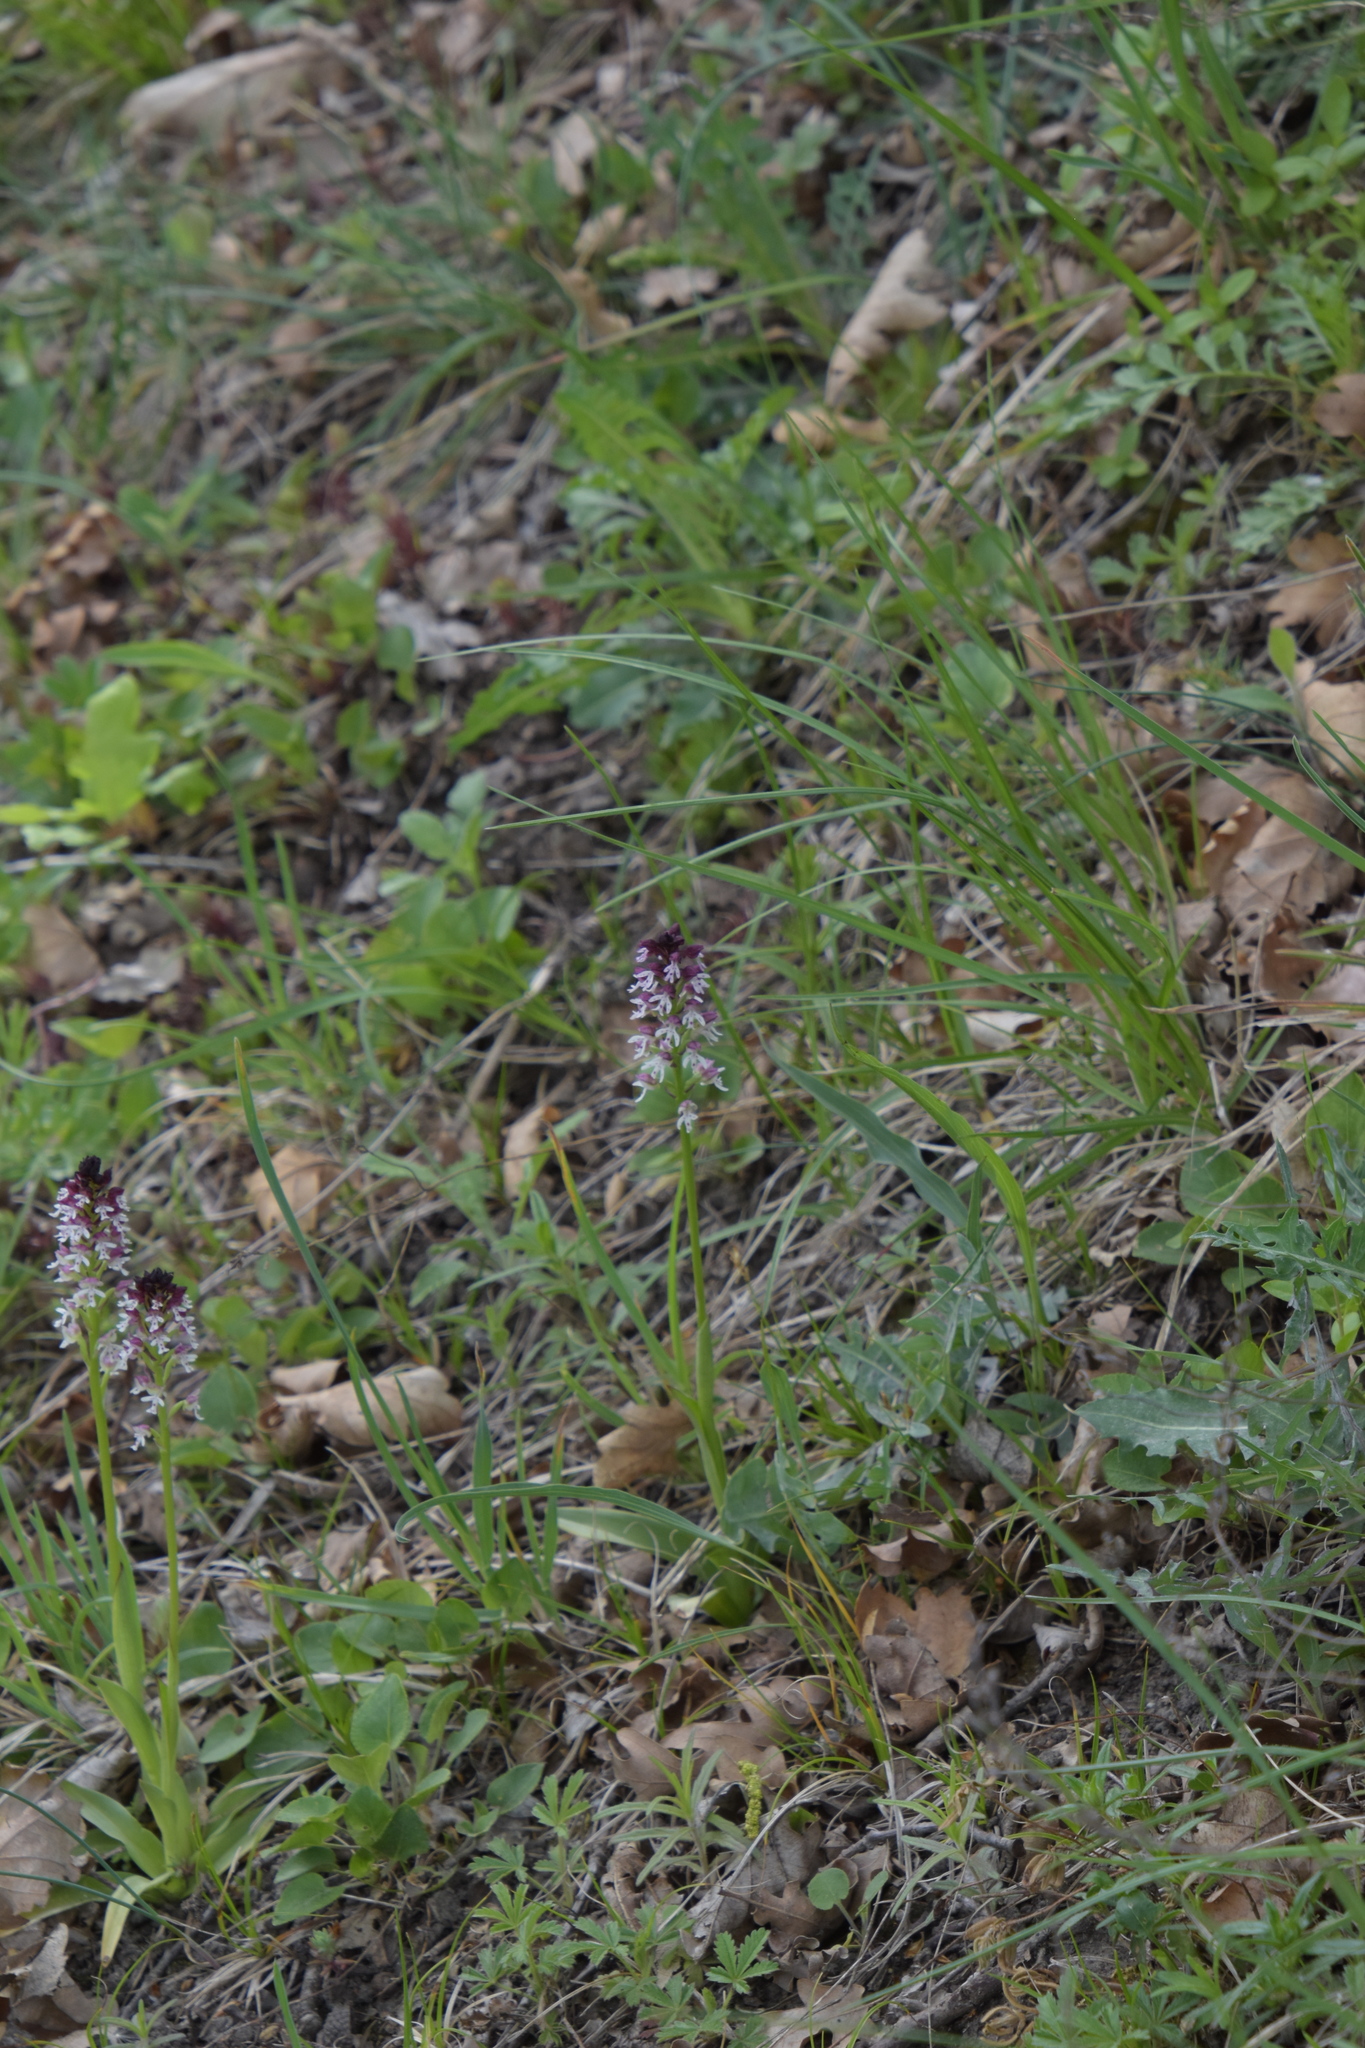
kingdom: Plantae
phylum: Tracheophyta
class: Liliopsida
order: Asparagales
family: Orchidaceae
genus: Neotinea
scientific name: Neotinea ustulata
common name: Burnt orchid
